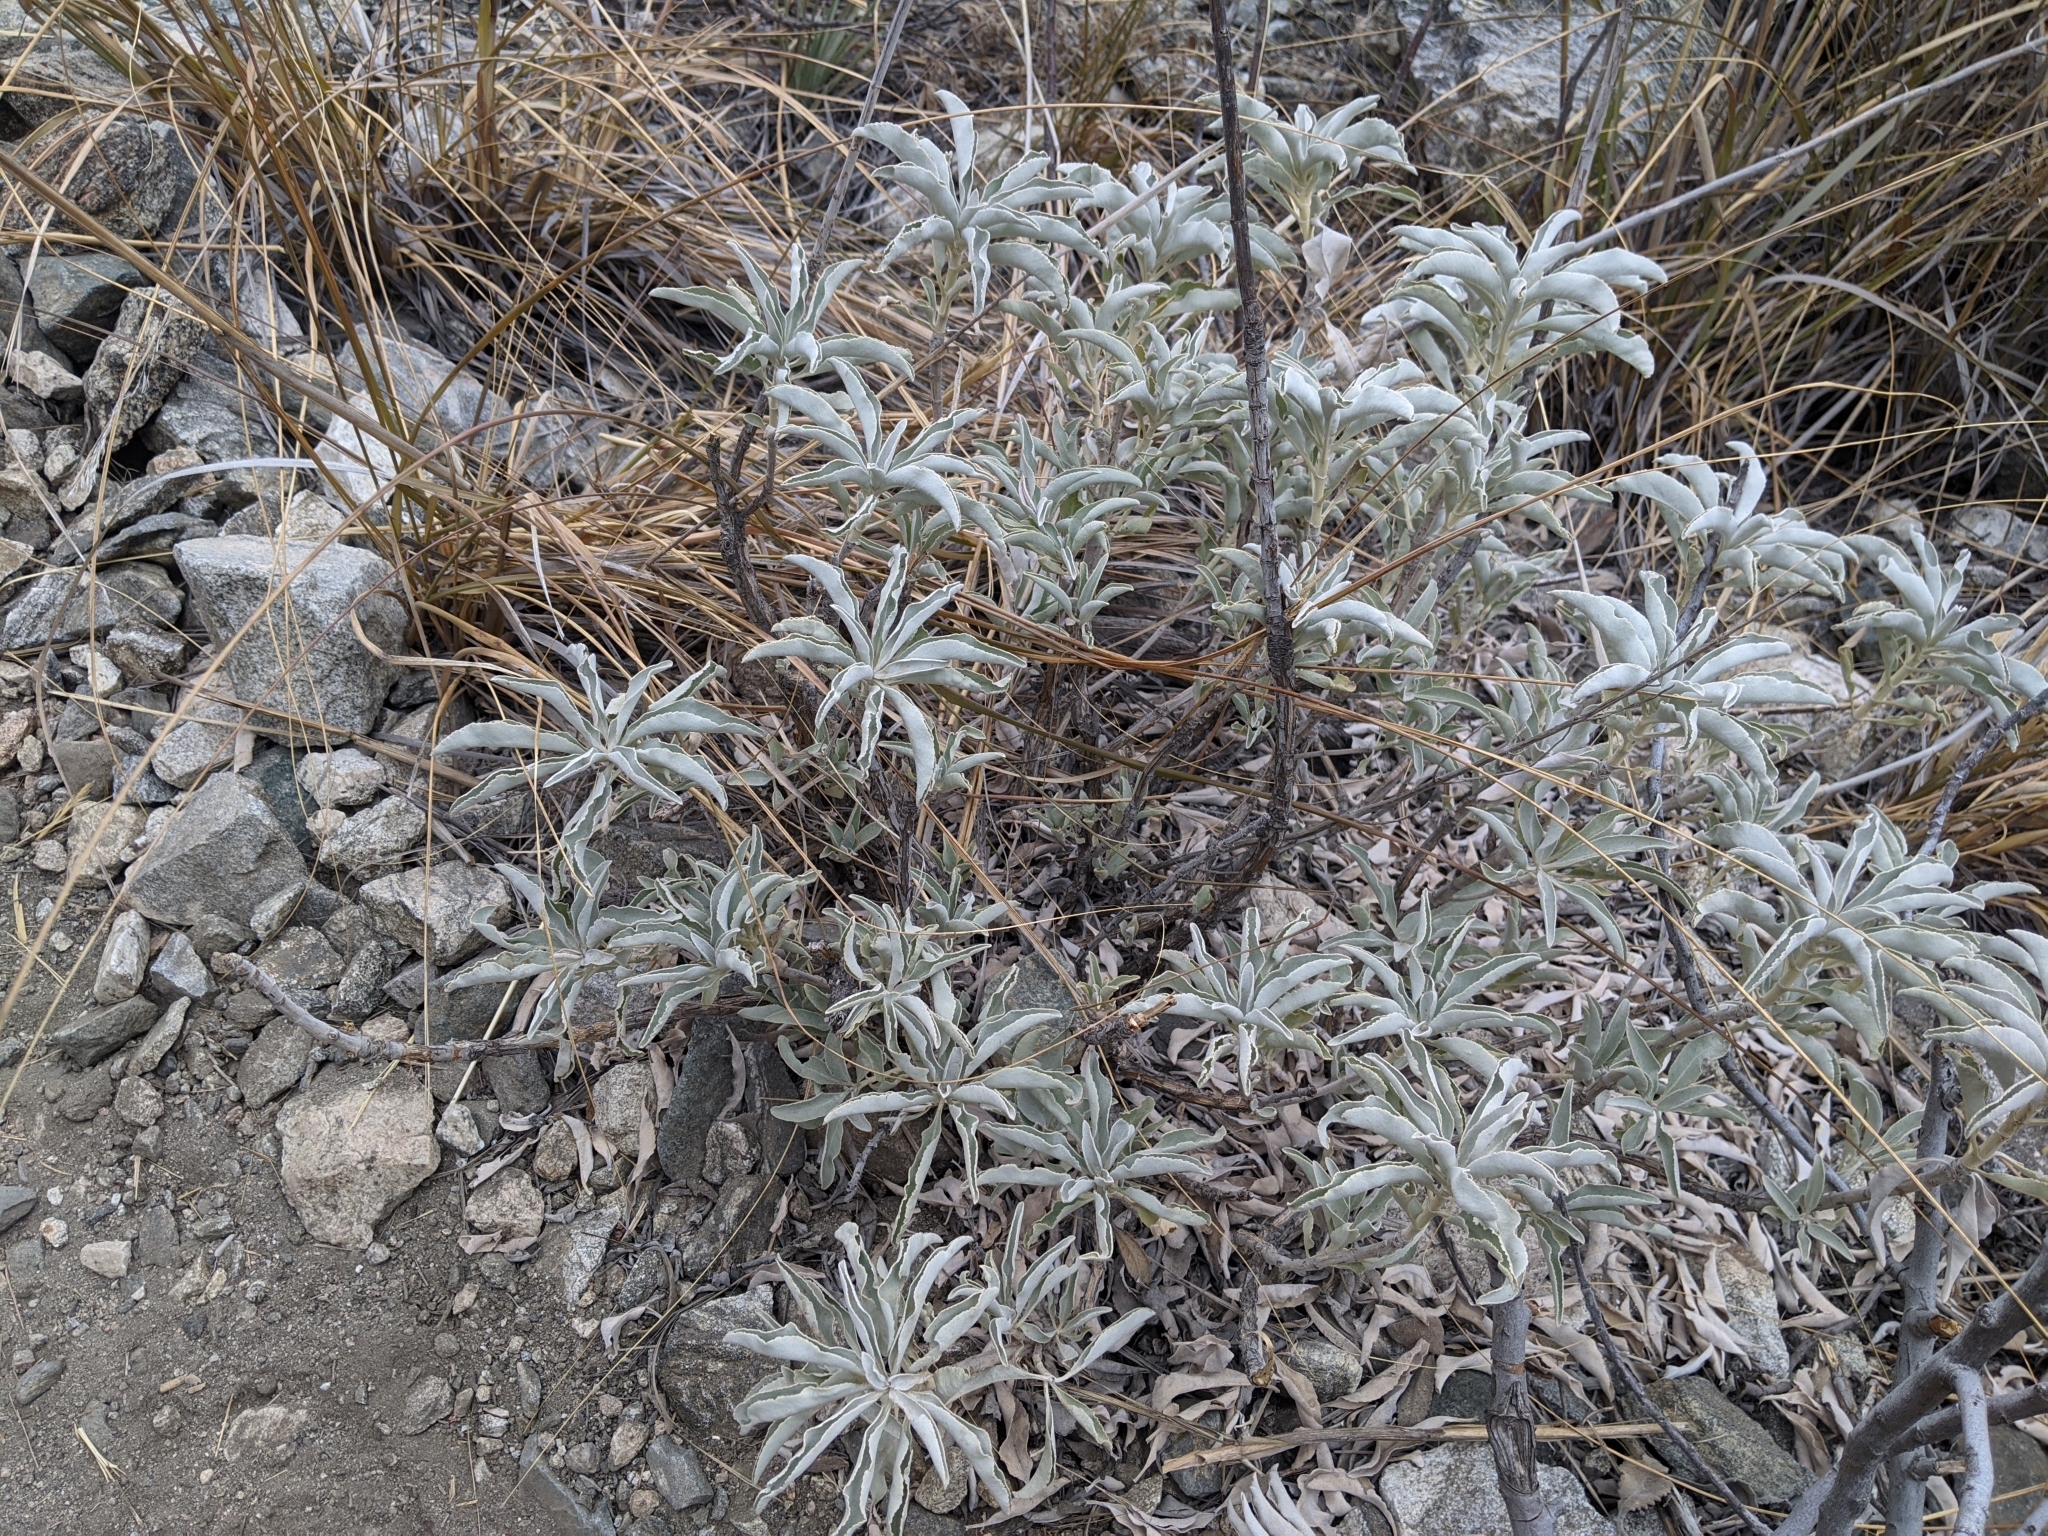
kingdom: Plantae
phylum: Tracheophyta
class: Magnoliopsida
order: Lamiales
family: Lamiaceae
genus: Salvia
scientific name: Salvia apiana
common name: White sage
